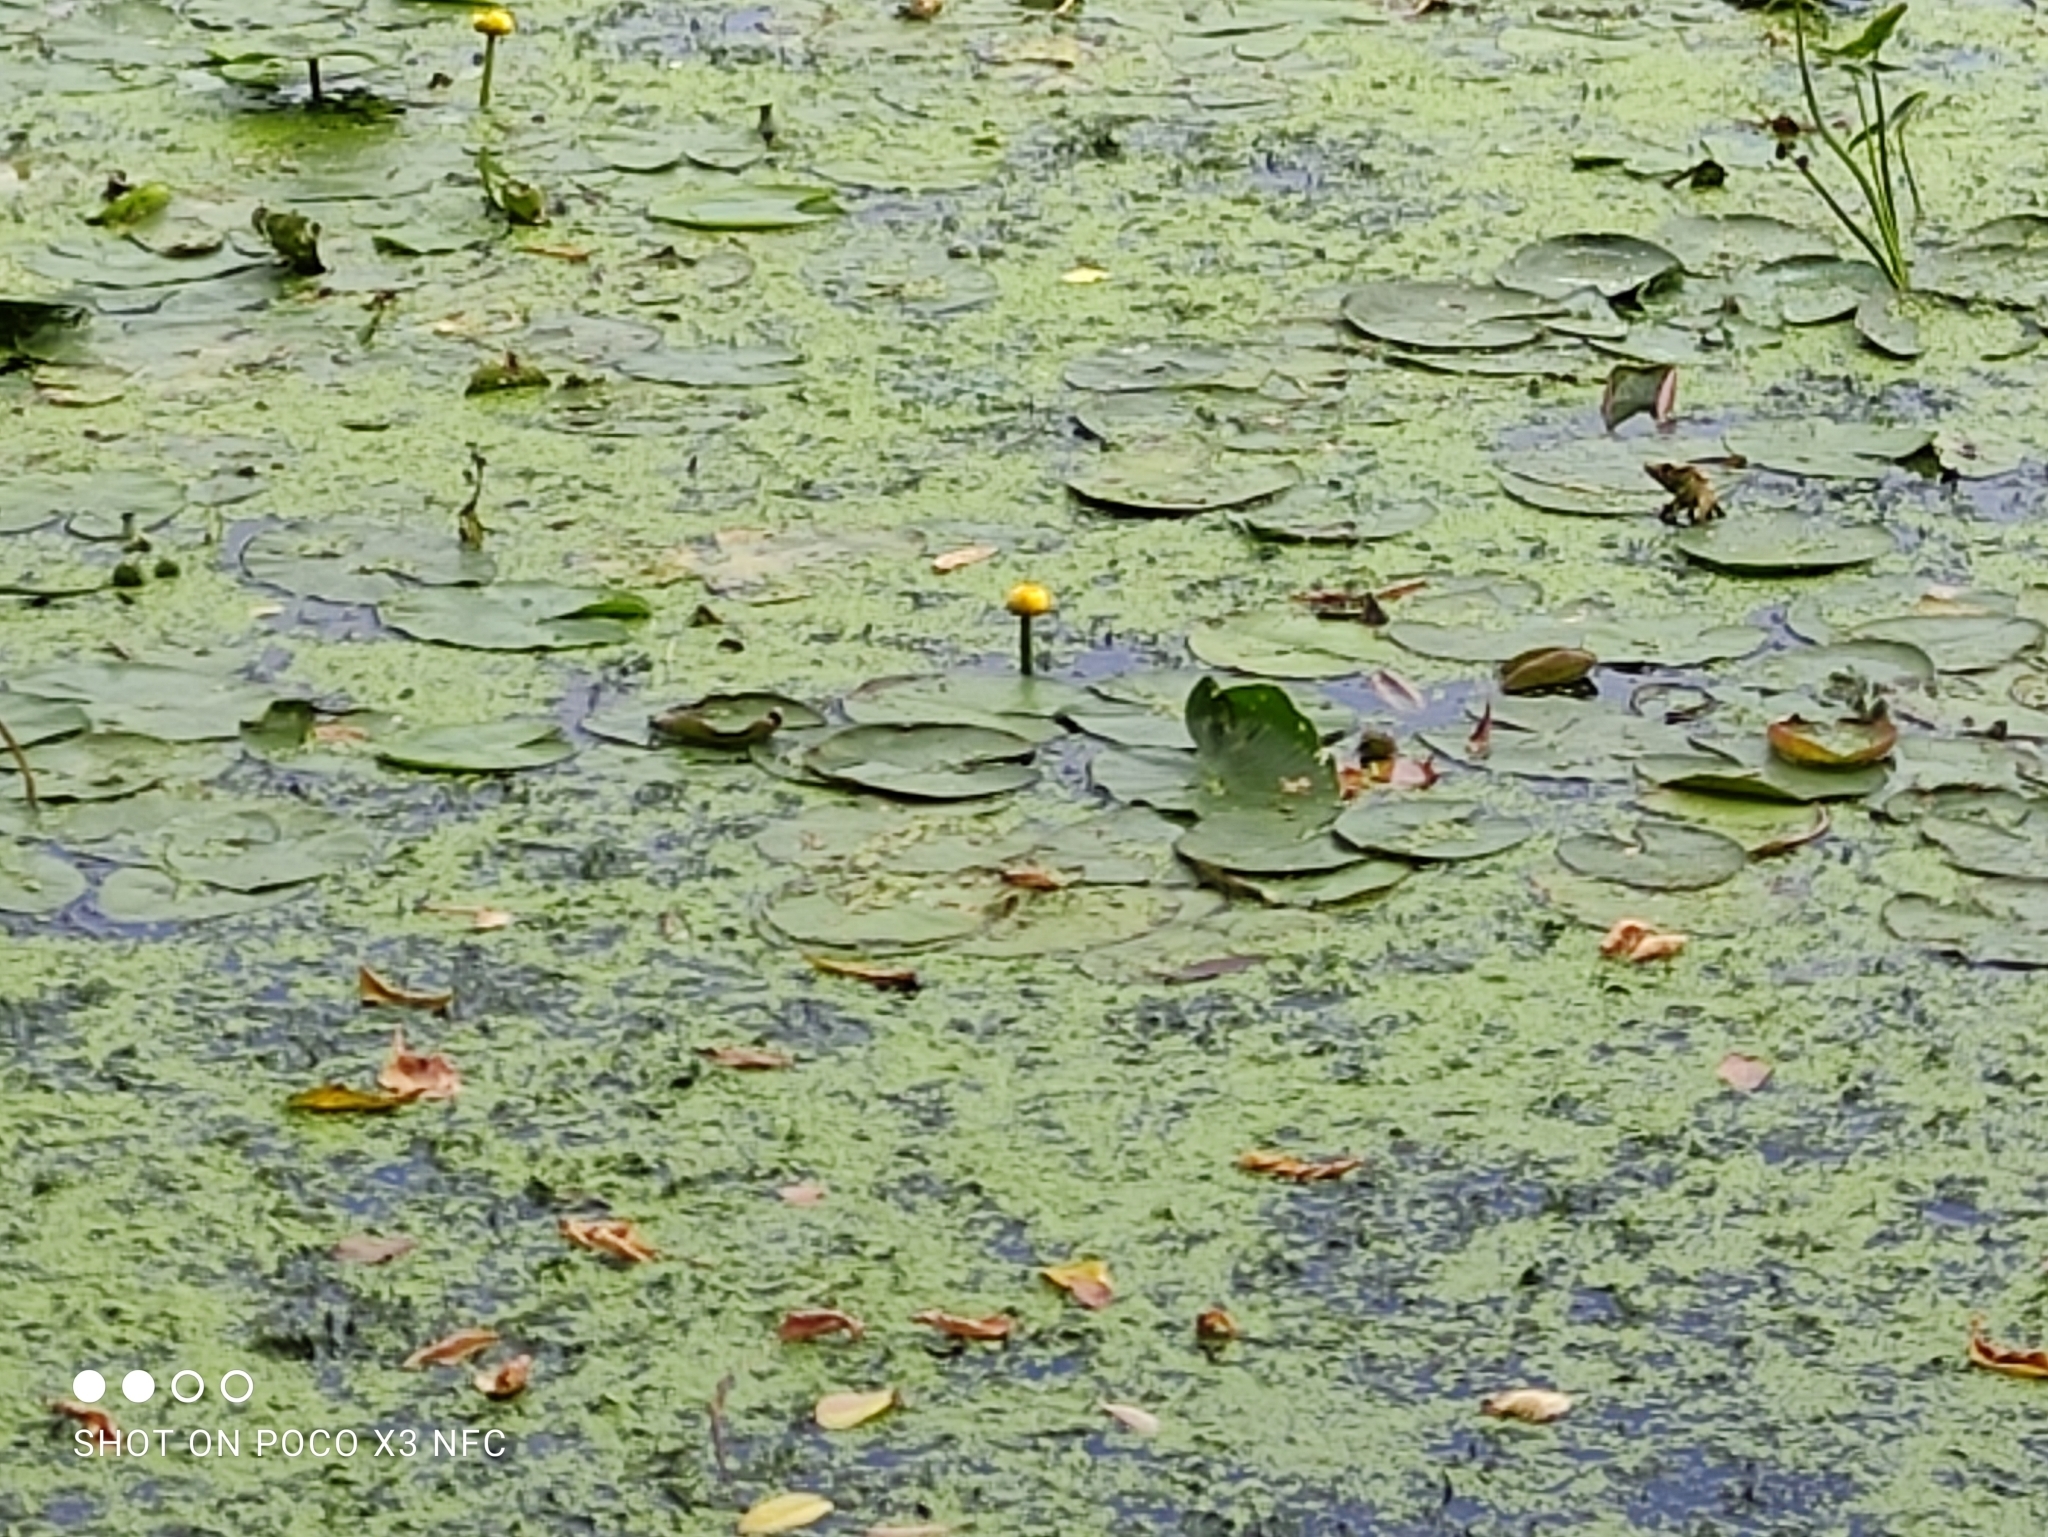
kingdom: Plantae
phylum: Tracheophyta
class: Magnoliopsida
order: Nymphaeales
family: Nymphaeaceae
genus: Nuphar
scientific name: Nuphar lutea
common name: Yellow water-lily
